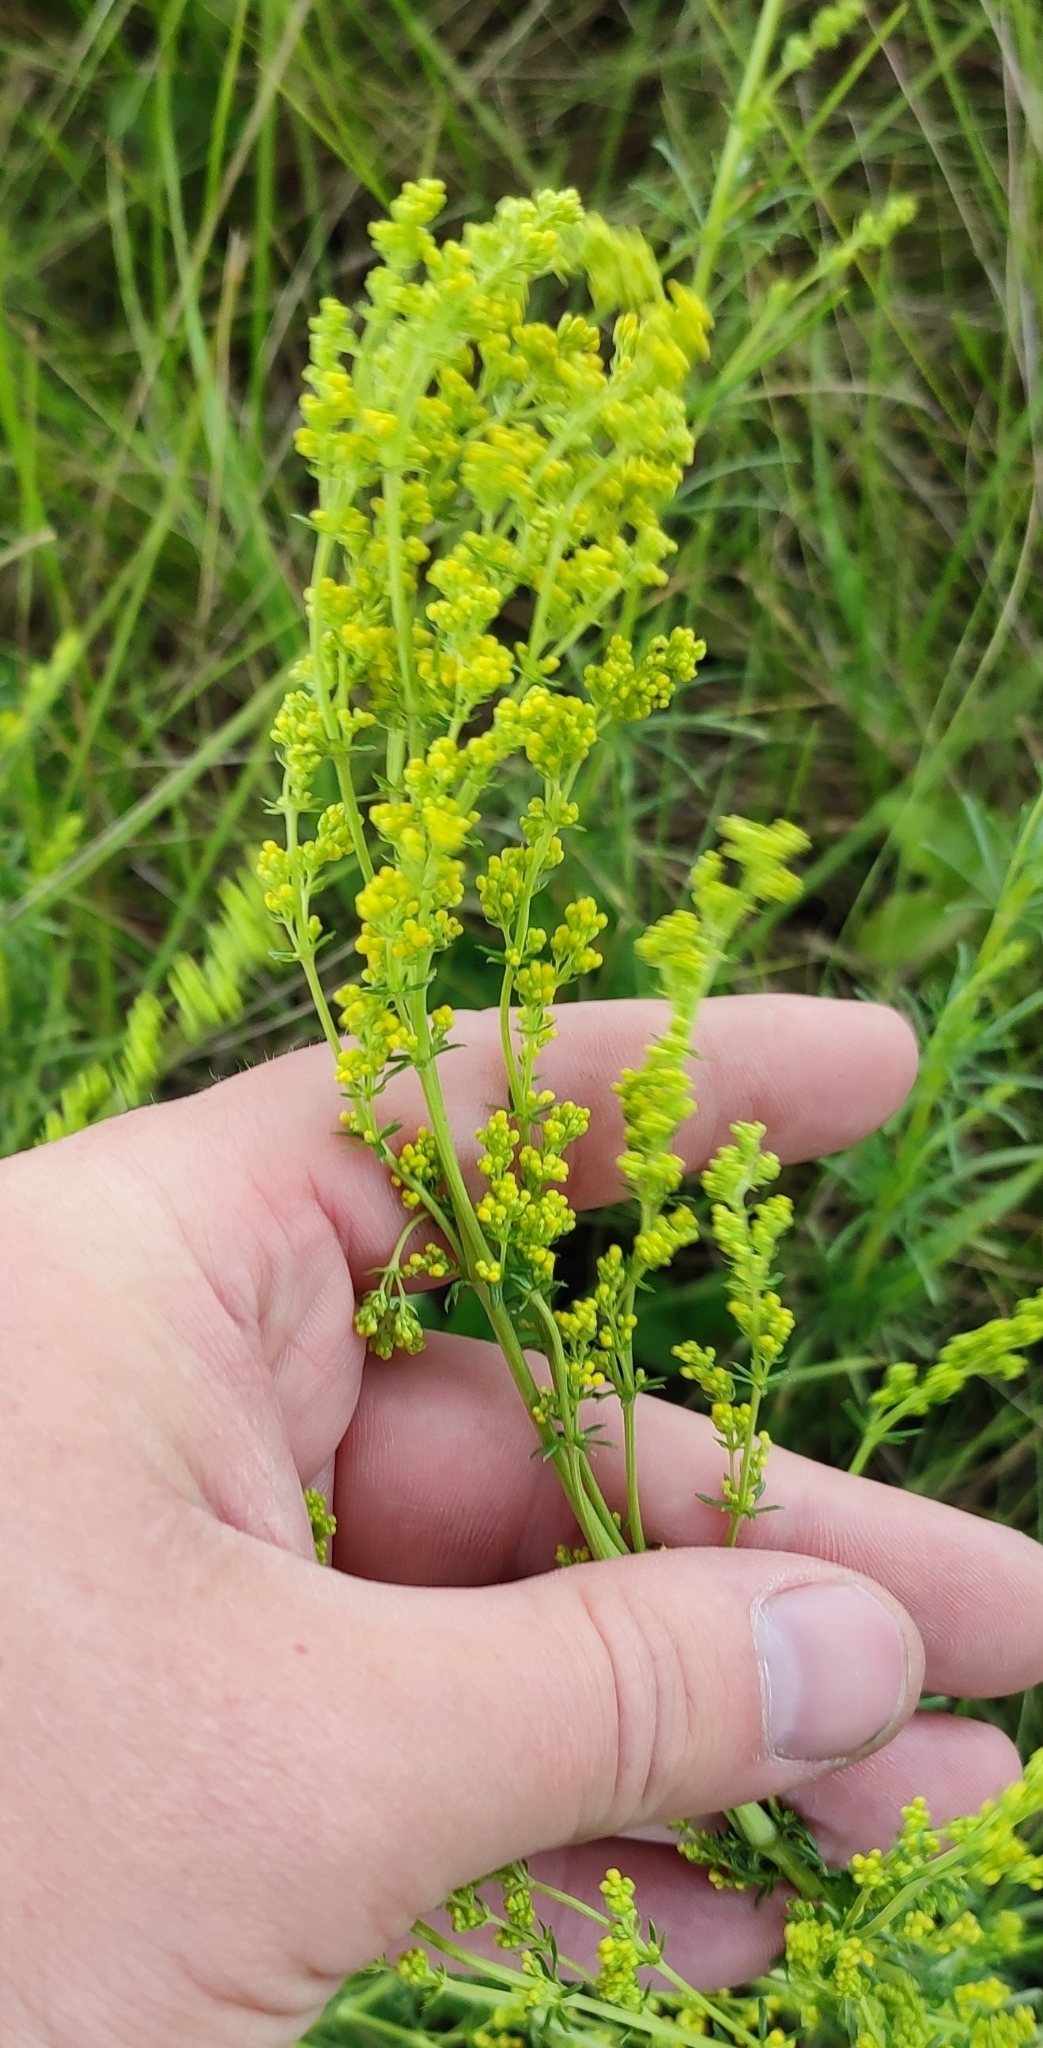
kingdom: Plantae
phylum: Tracheophyta
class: Magnoliopsida
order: Gentianales
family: Rubiaceae
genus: Galium
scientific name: Galium verum
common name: Lady's bedstraw
